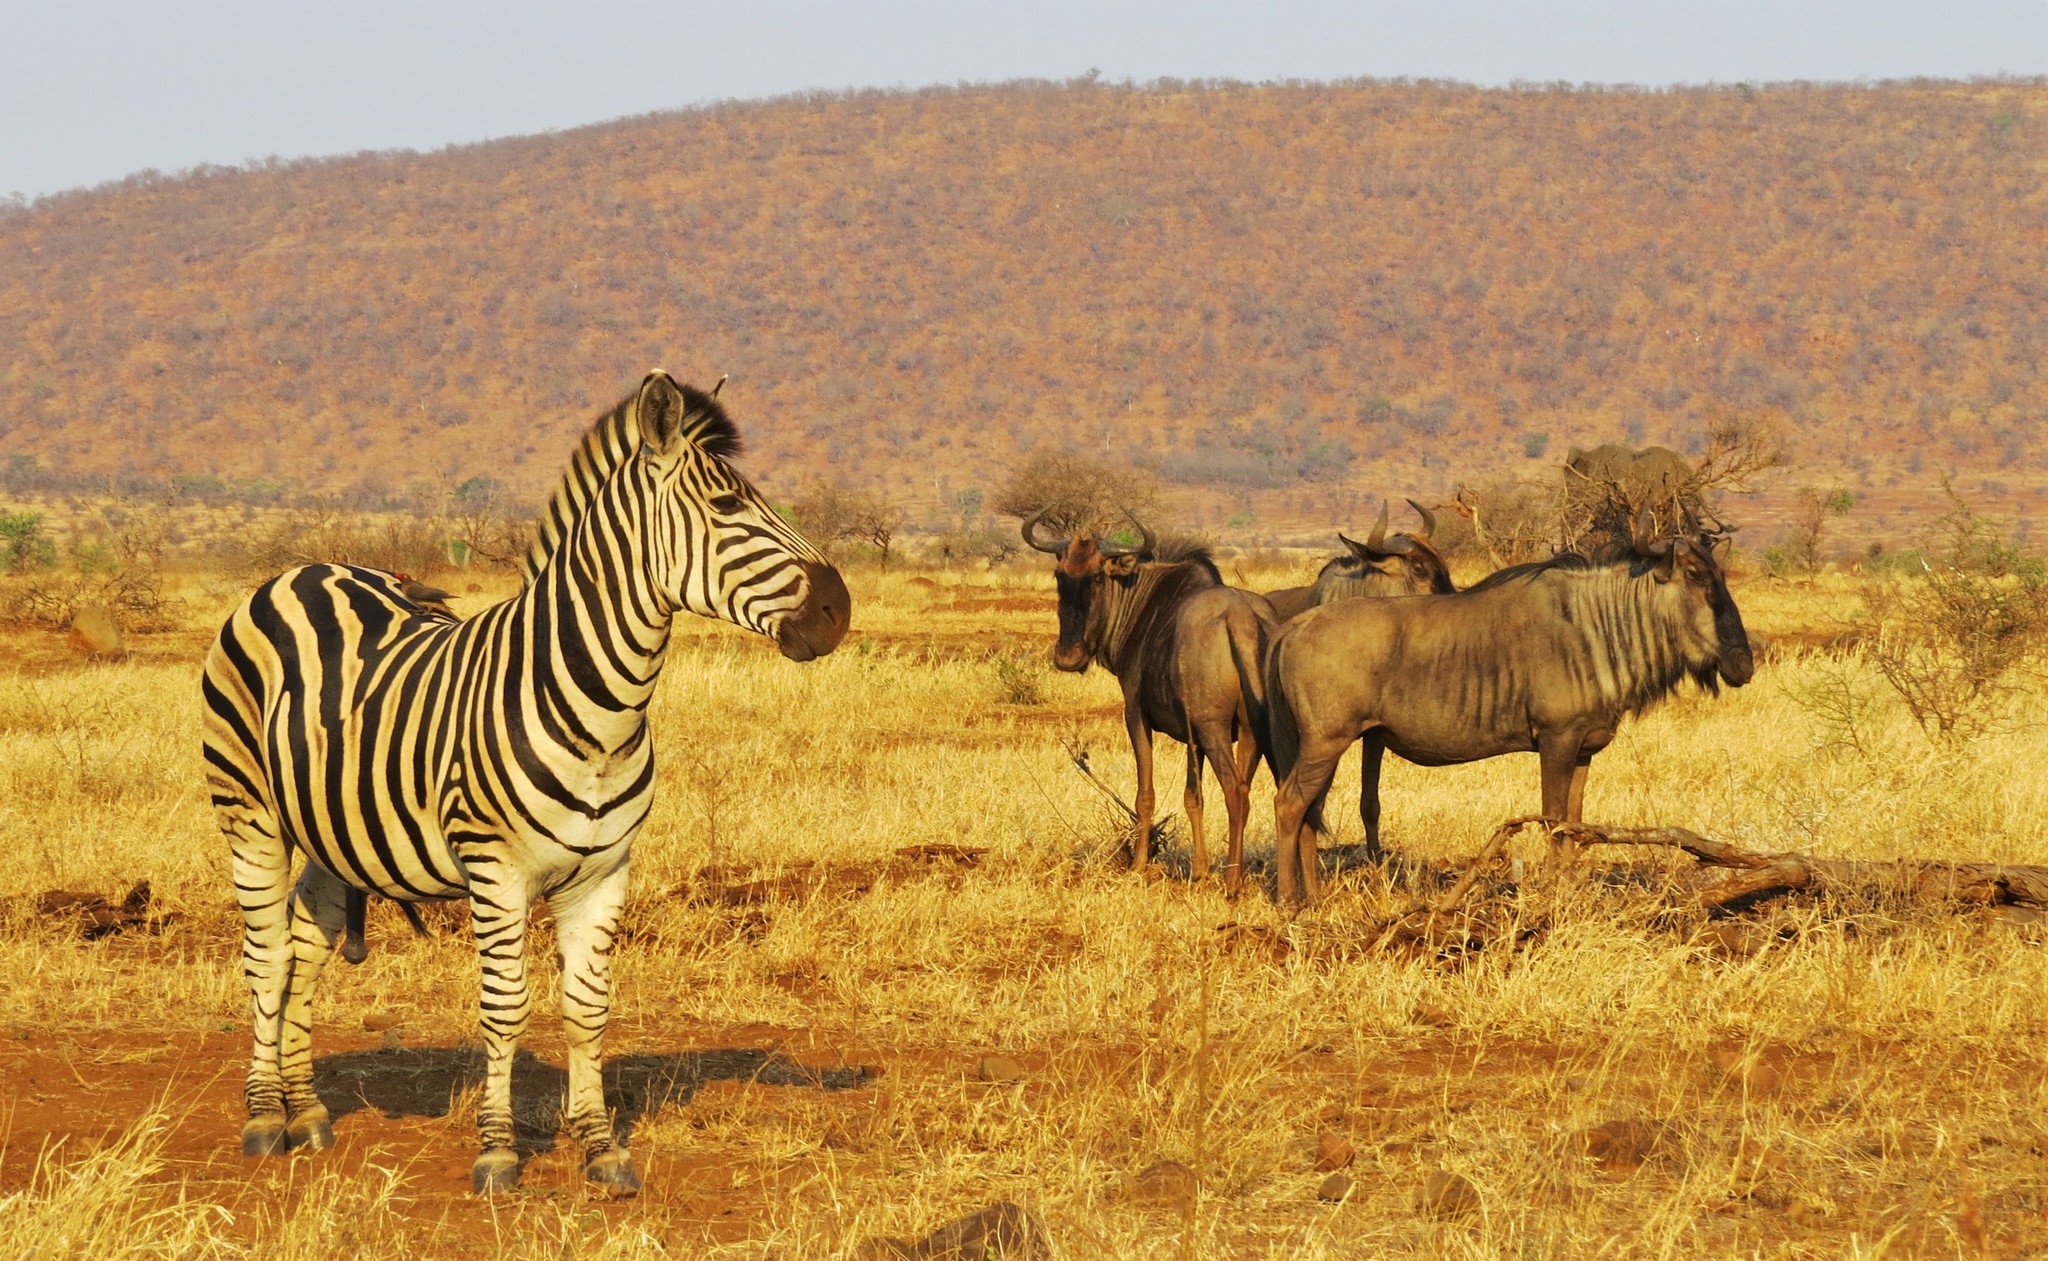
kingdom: Animalia
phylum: Chordata
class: Mammalia
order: Perissodactyla
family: Equidae
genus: Equus
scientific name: Equus quagga
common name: Plains zebra
